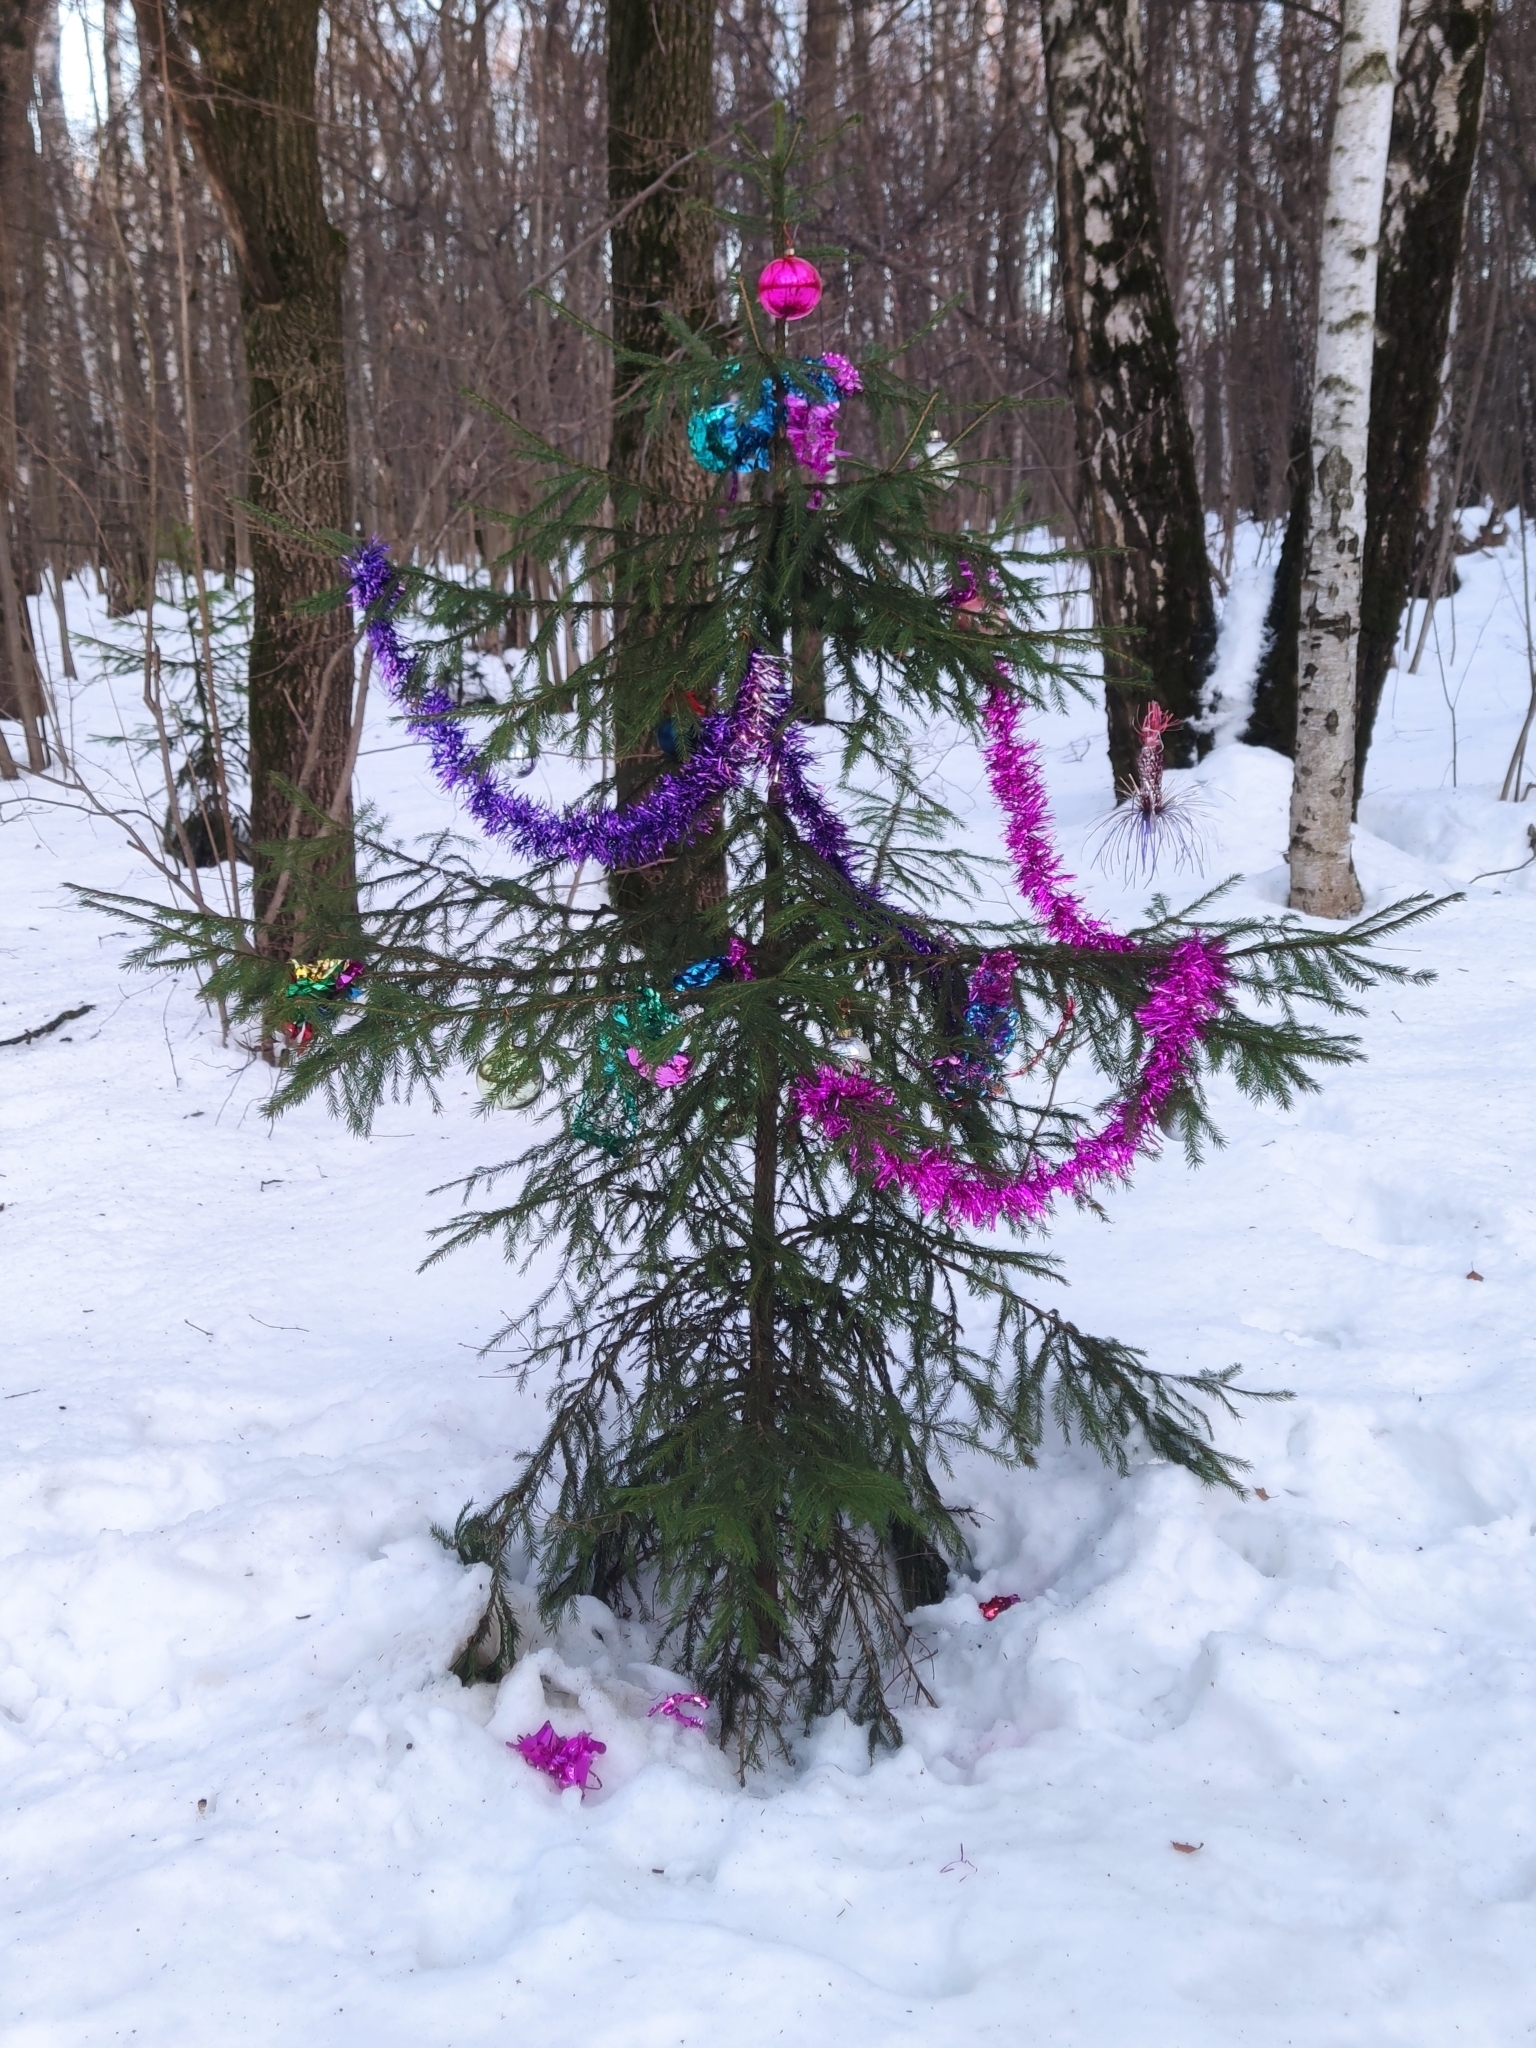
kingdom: Plantae
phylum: Tracheophyta
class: Pinopsida
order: Pinales
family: Pinaceae
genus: Picea
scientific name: Picea abies
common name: Norway spruce
